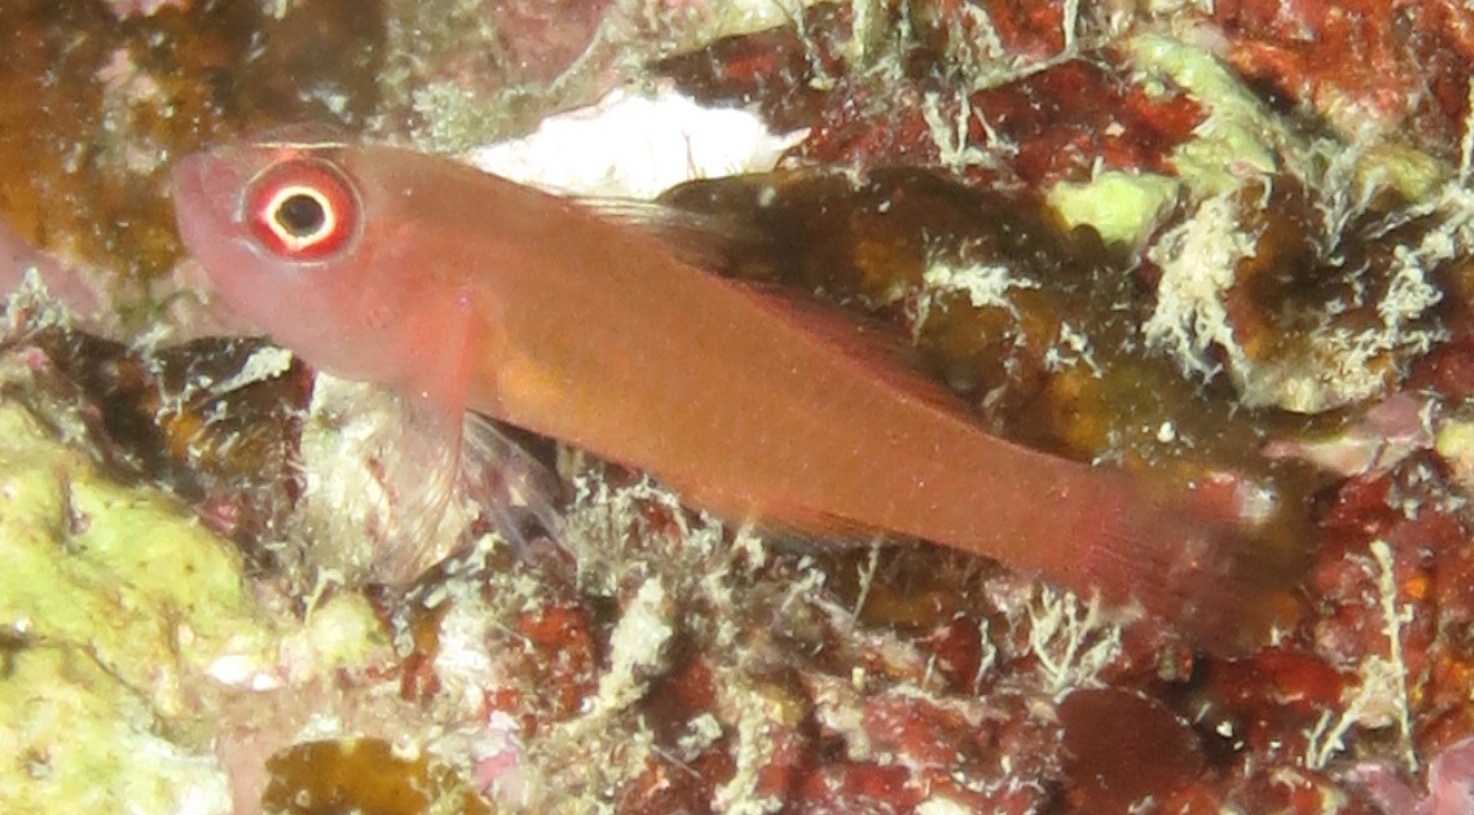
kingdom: Animalia
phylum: Chordata
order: Perciformes
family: Gobiidae
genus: Trimma
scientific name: Trimma benjamini
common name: Redface dwarfgoby
